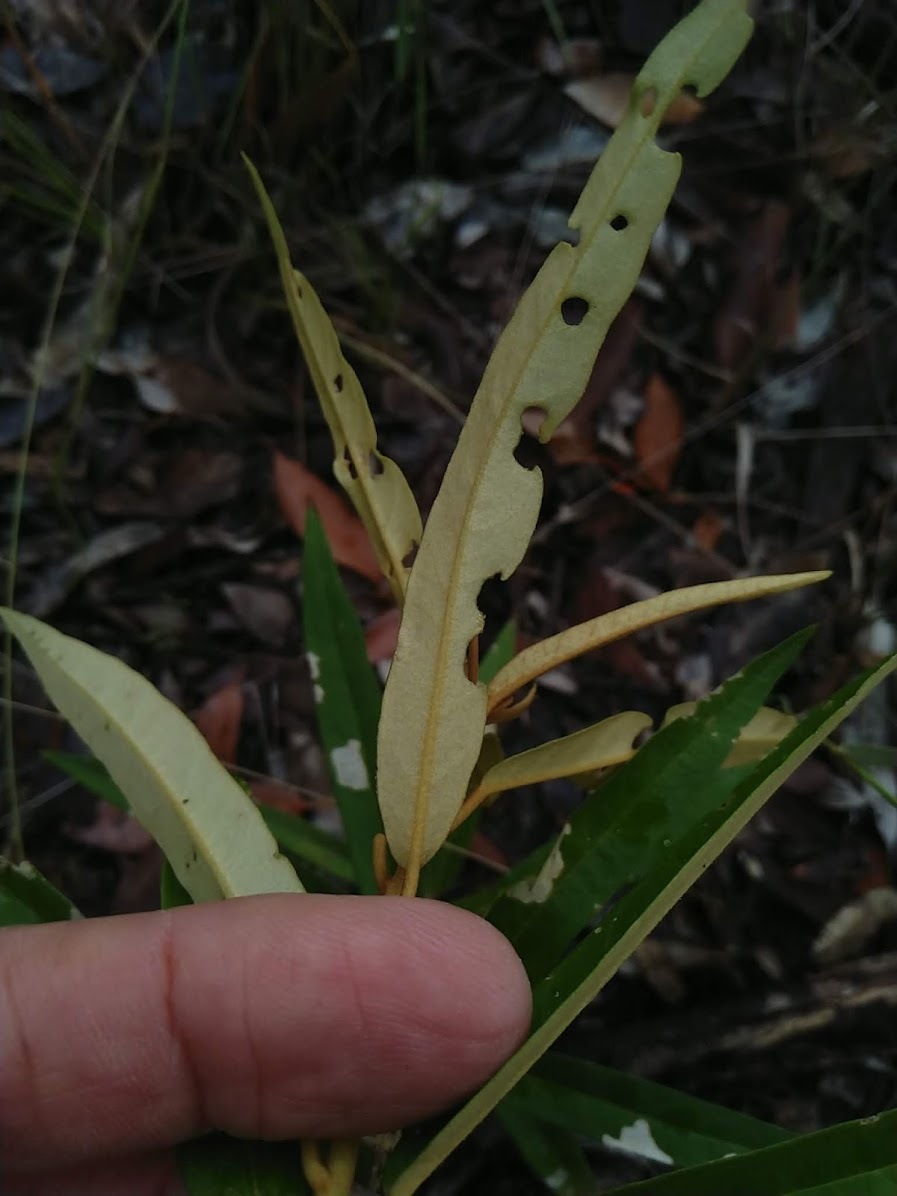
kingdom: Plantae
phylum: Tracheophyta
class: Magnoliopsida
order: Apiales
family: Araliaceae
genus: Astrotricha
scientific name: Astrotricha longifolia
